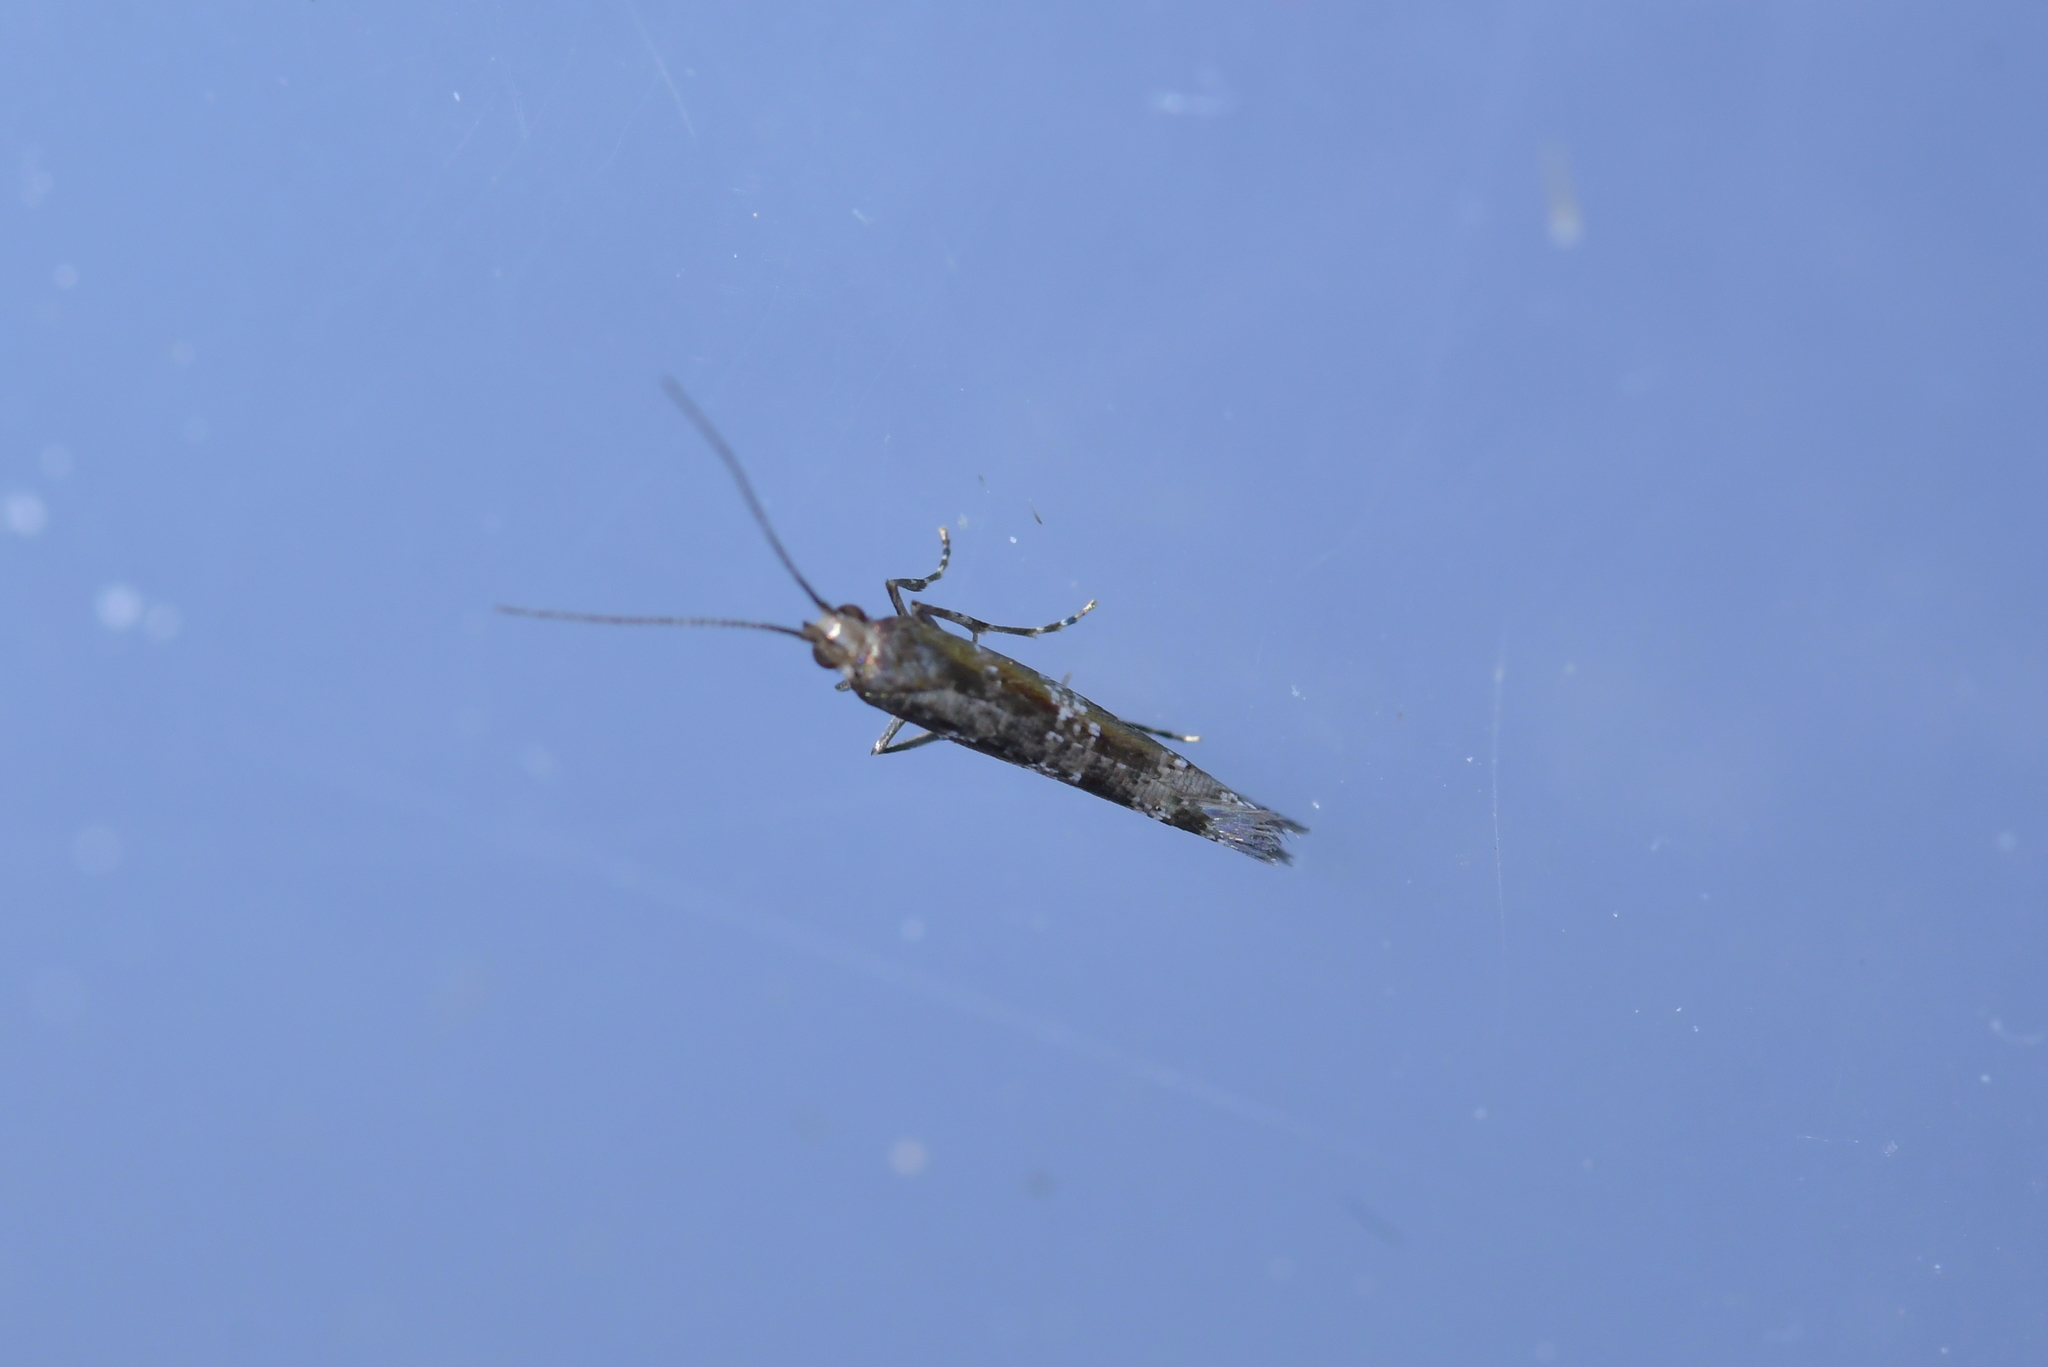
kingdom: Animalia
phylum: Arthropoda
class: Insecta
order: Lepidoptera
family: Glyphipterigidae
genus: Chrysorthenches
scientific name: Chrysorthenches drosochalca
